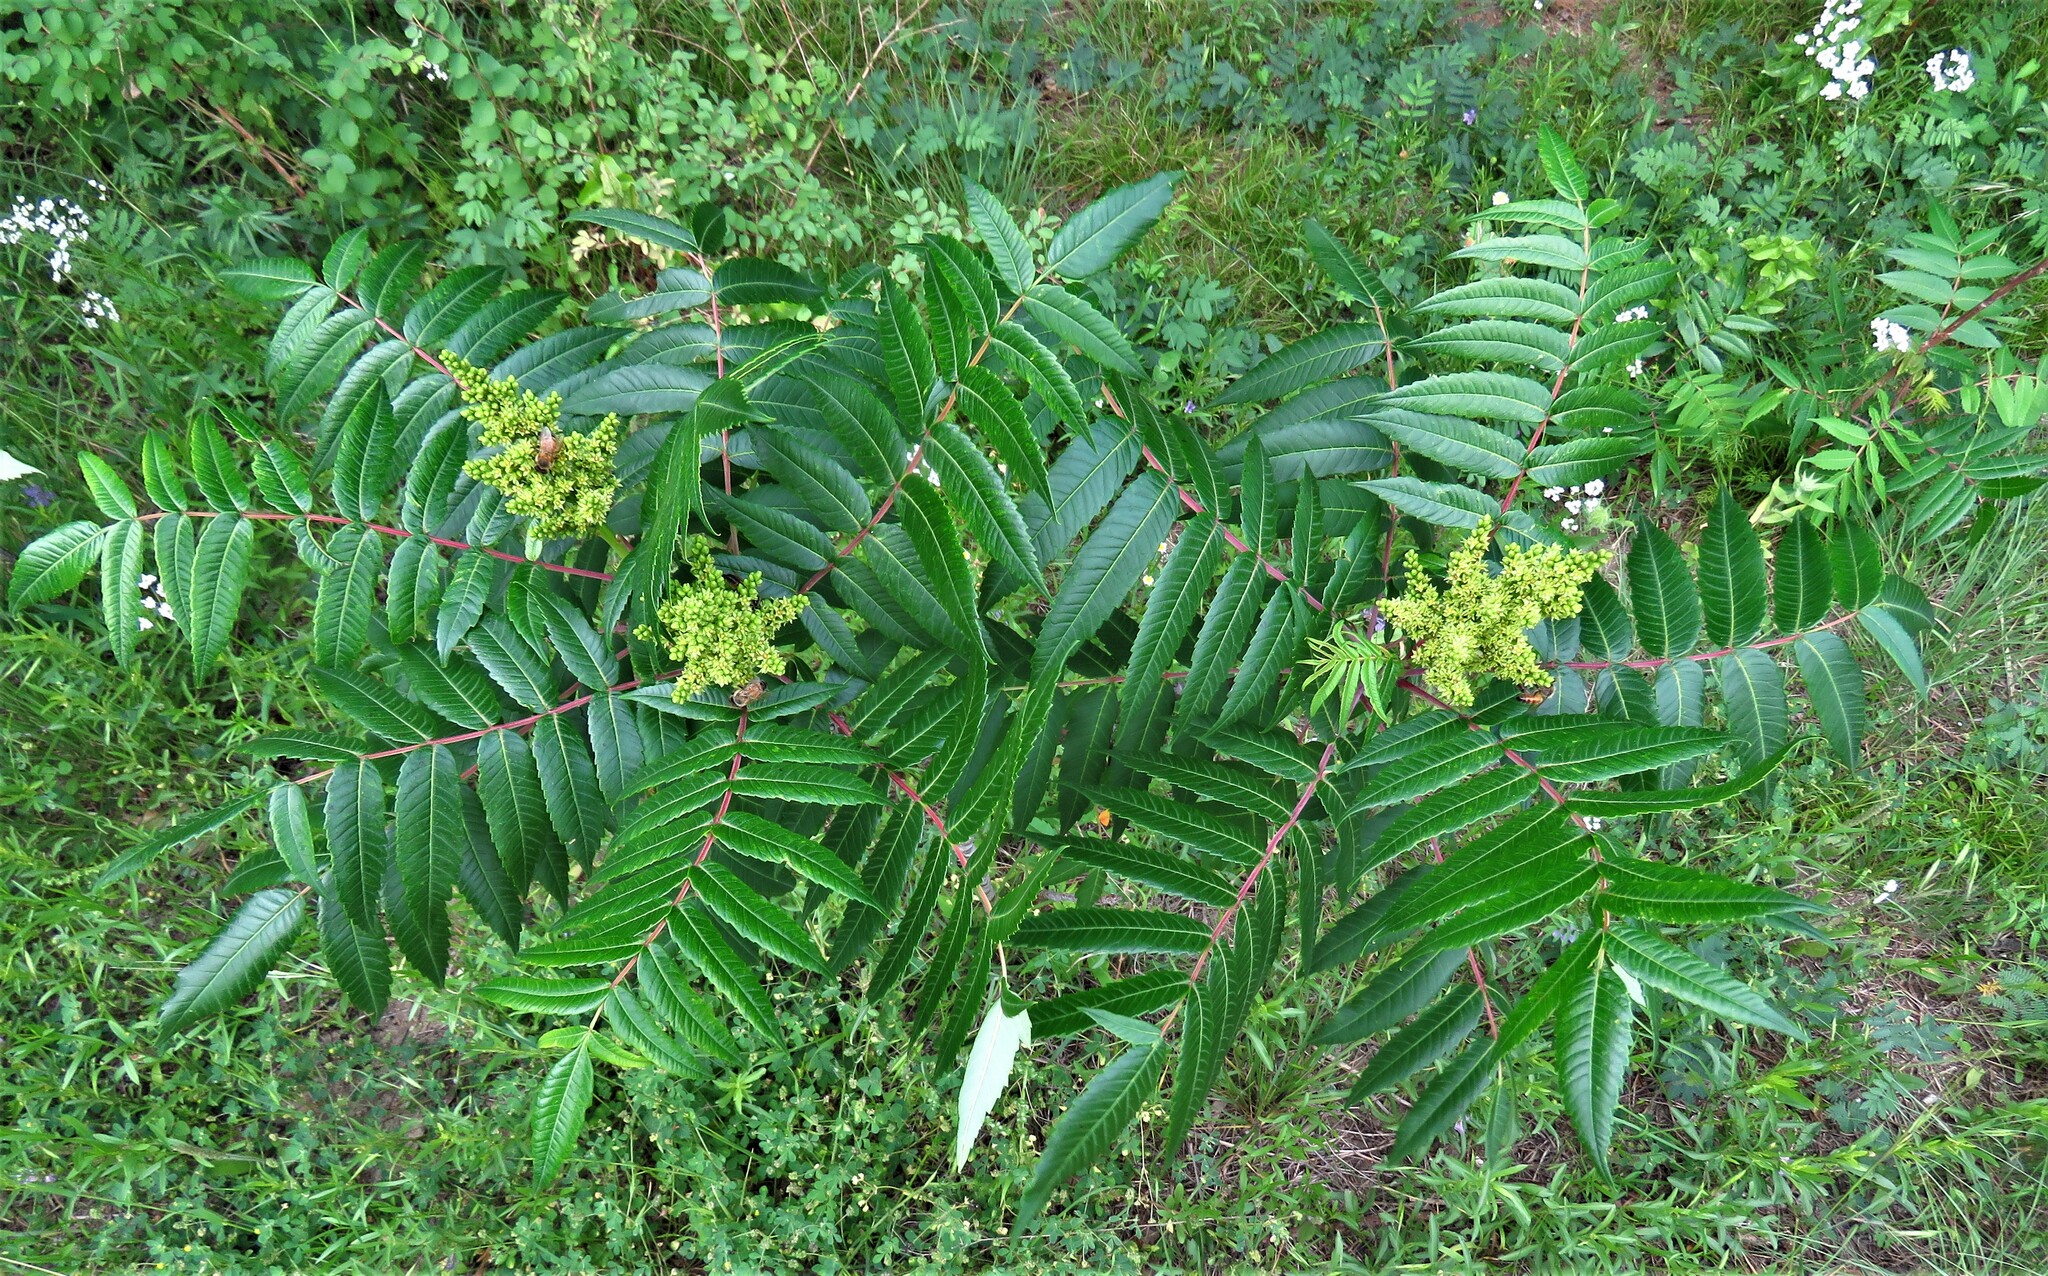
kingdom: Plantae
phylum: Tracheophyta
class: Magnoliopsida
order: Sapindales
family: Anacardiaceae
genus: Rhus
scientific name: Rhus glabra
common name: Scarlet sumac
